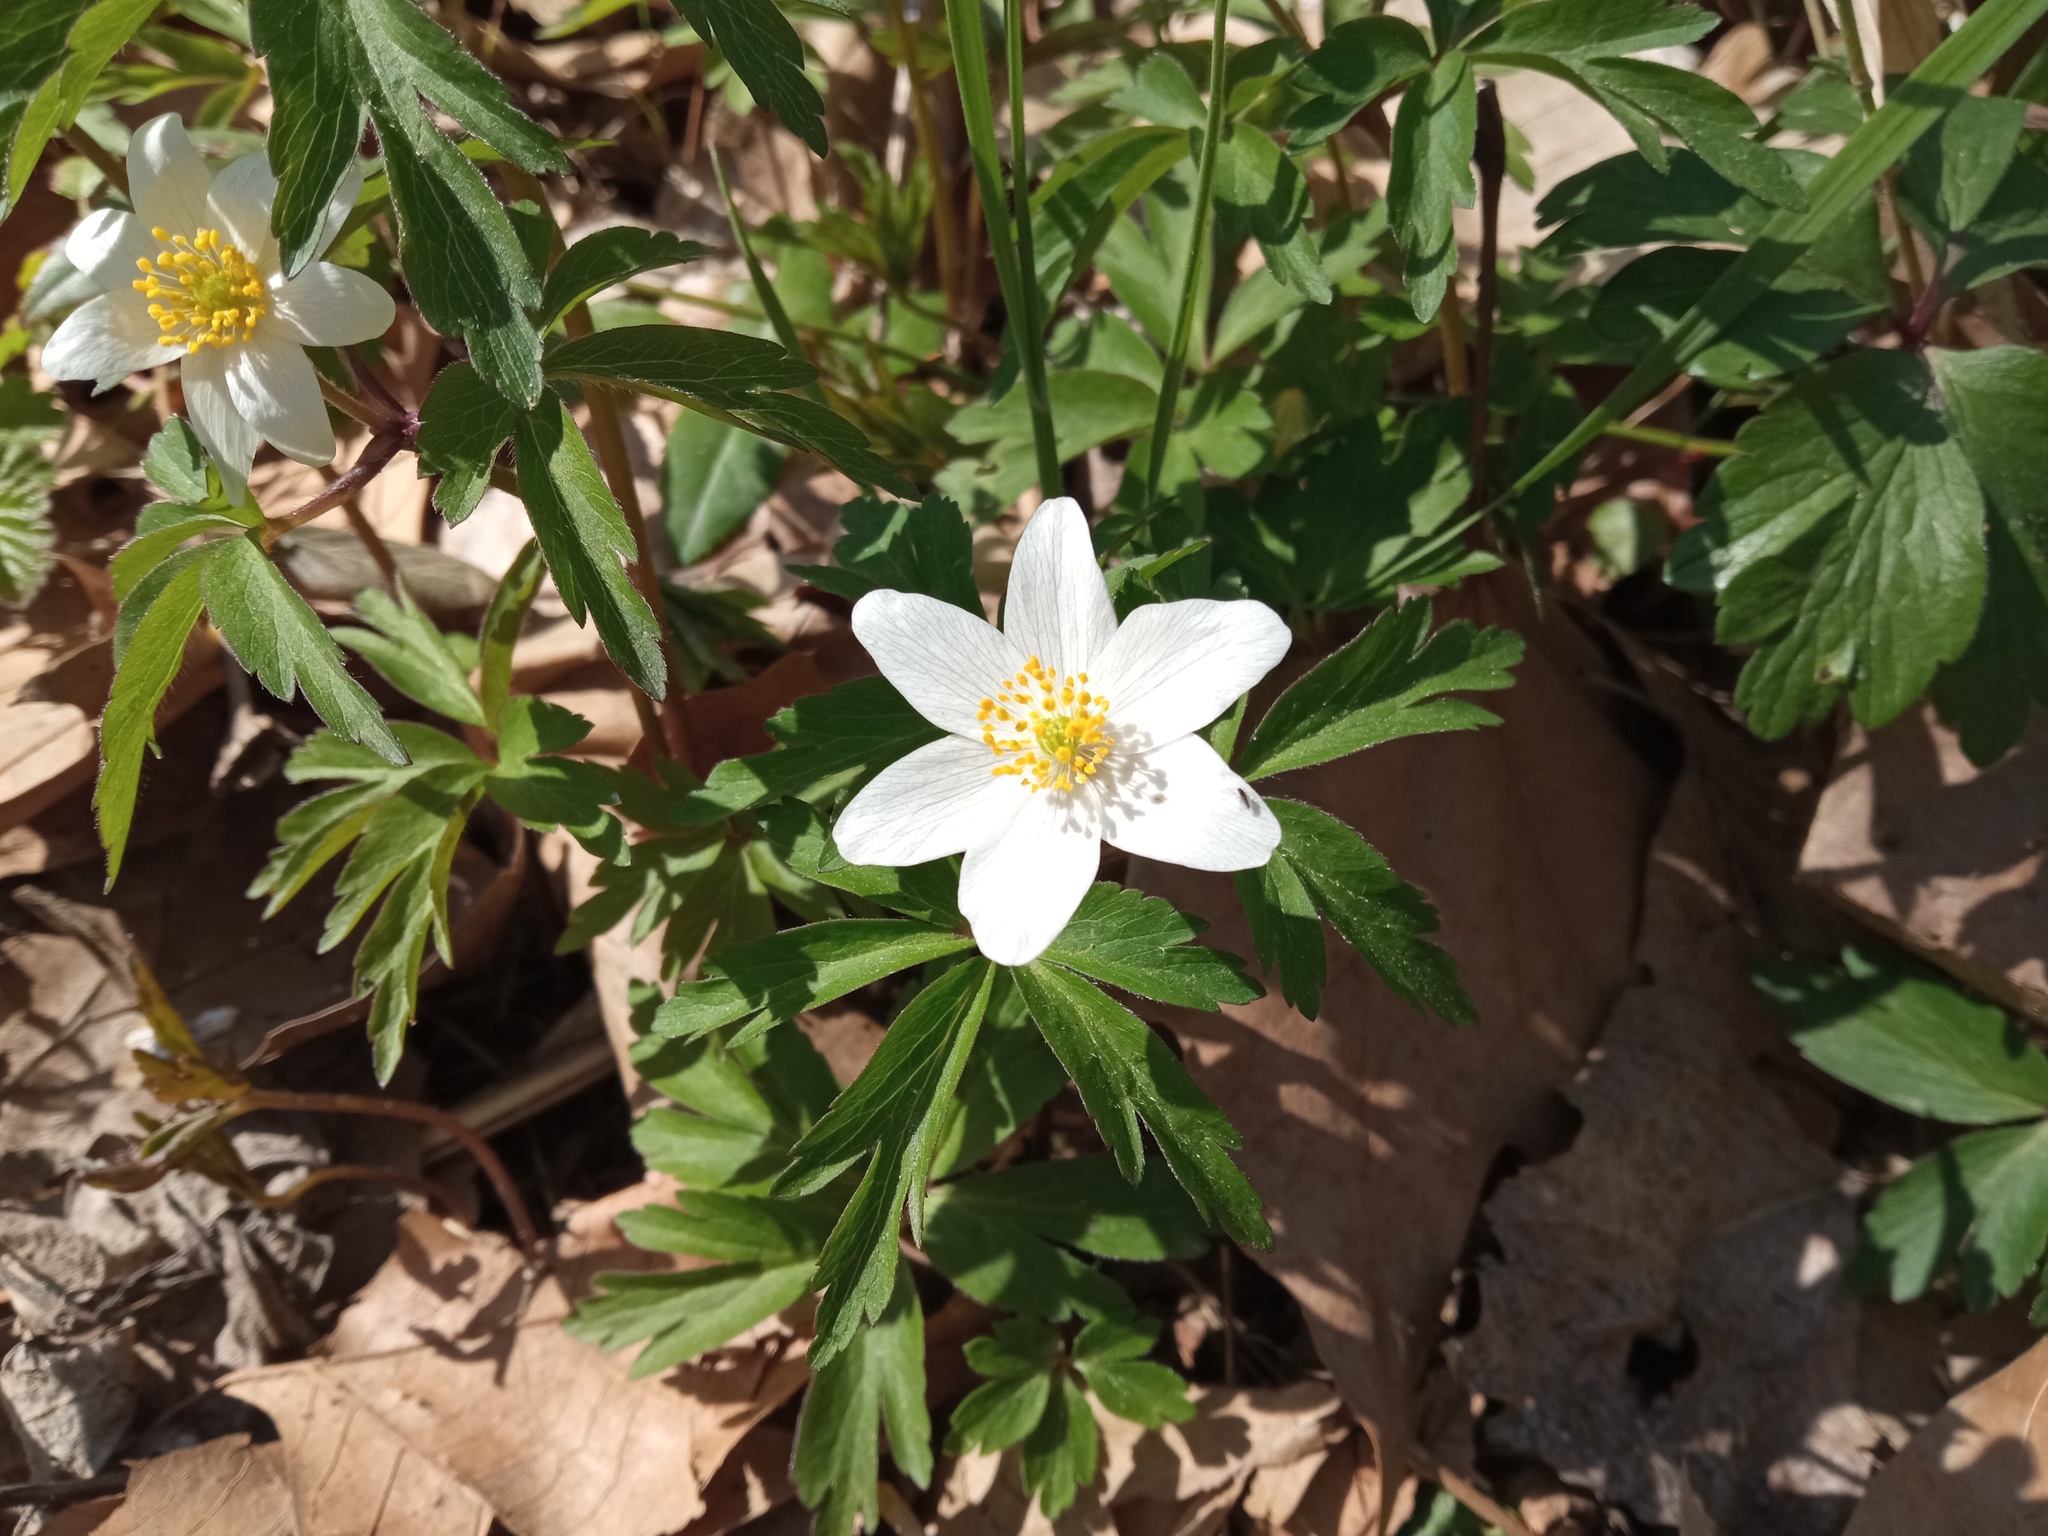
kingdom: Plantae
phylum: Tracheophyta
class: Magnoliopsida
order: Ranunculales
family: Ranunculaceae
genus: Anemone
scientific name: Anemone nemorosa
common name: Wood anemone
